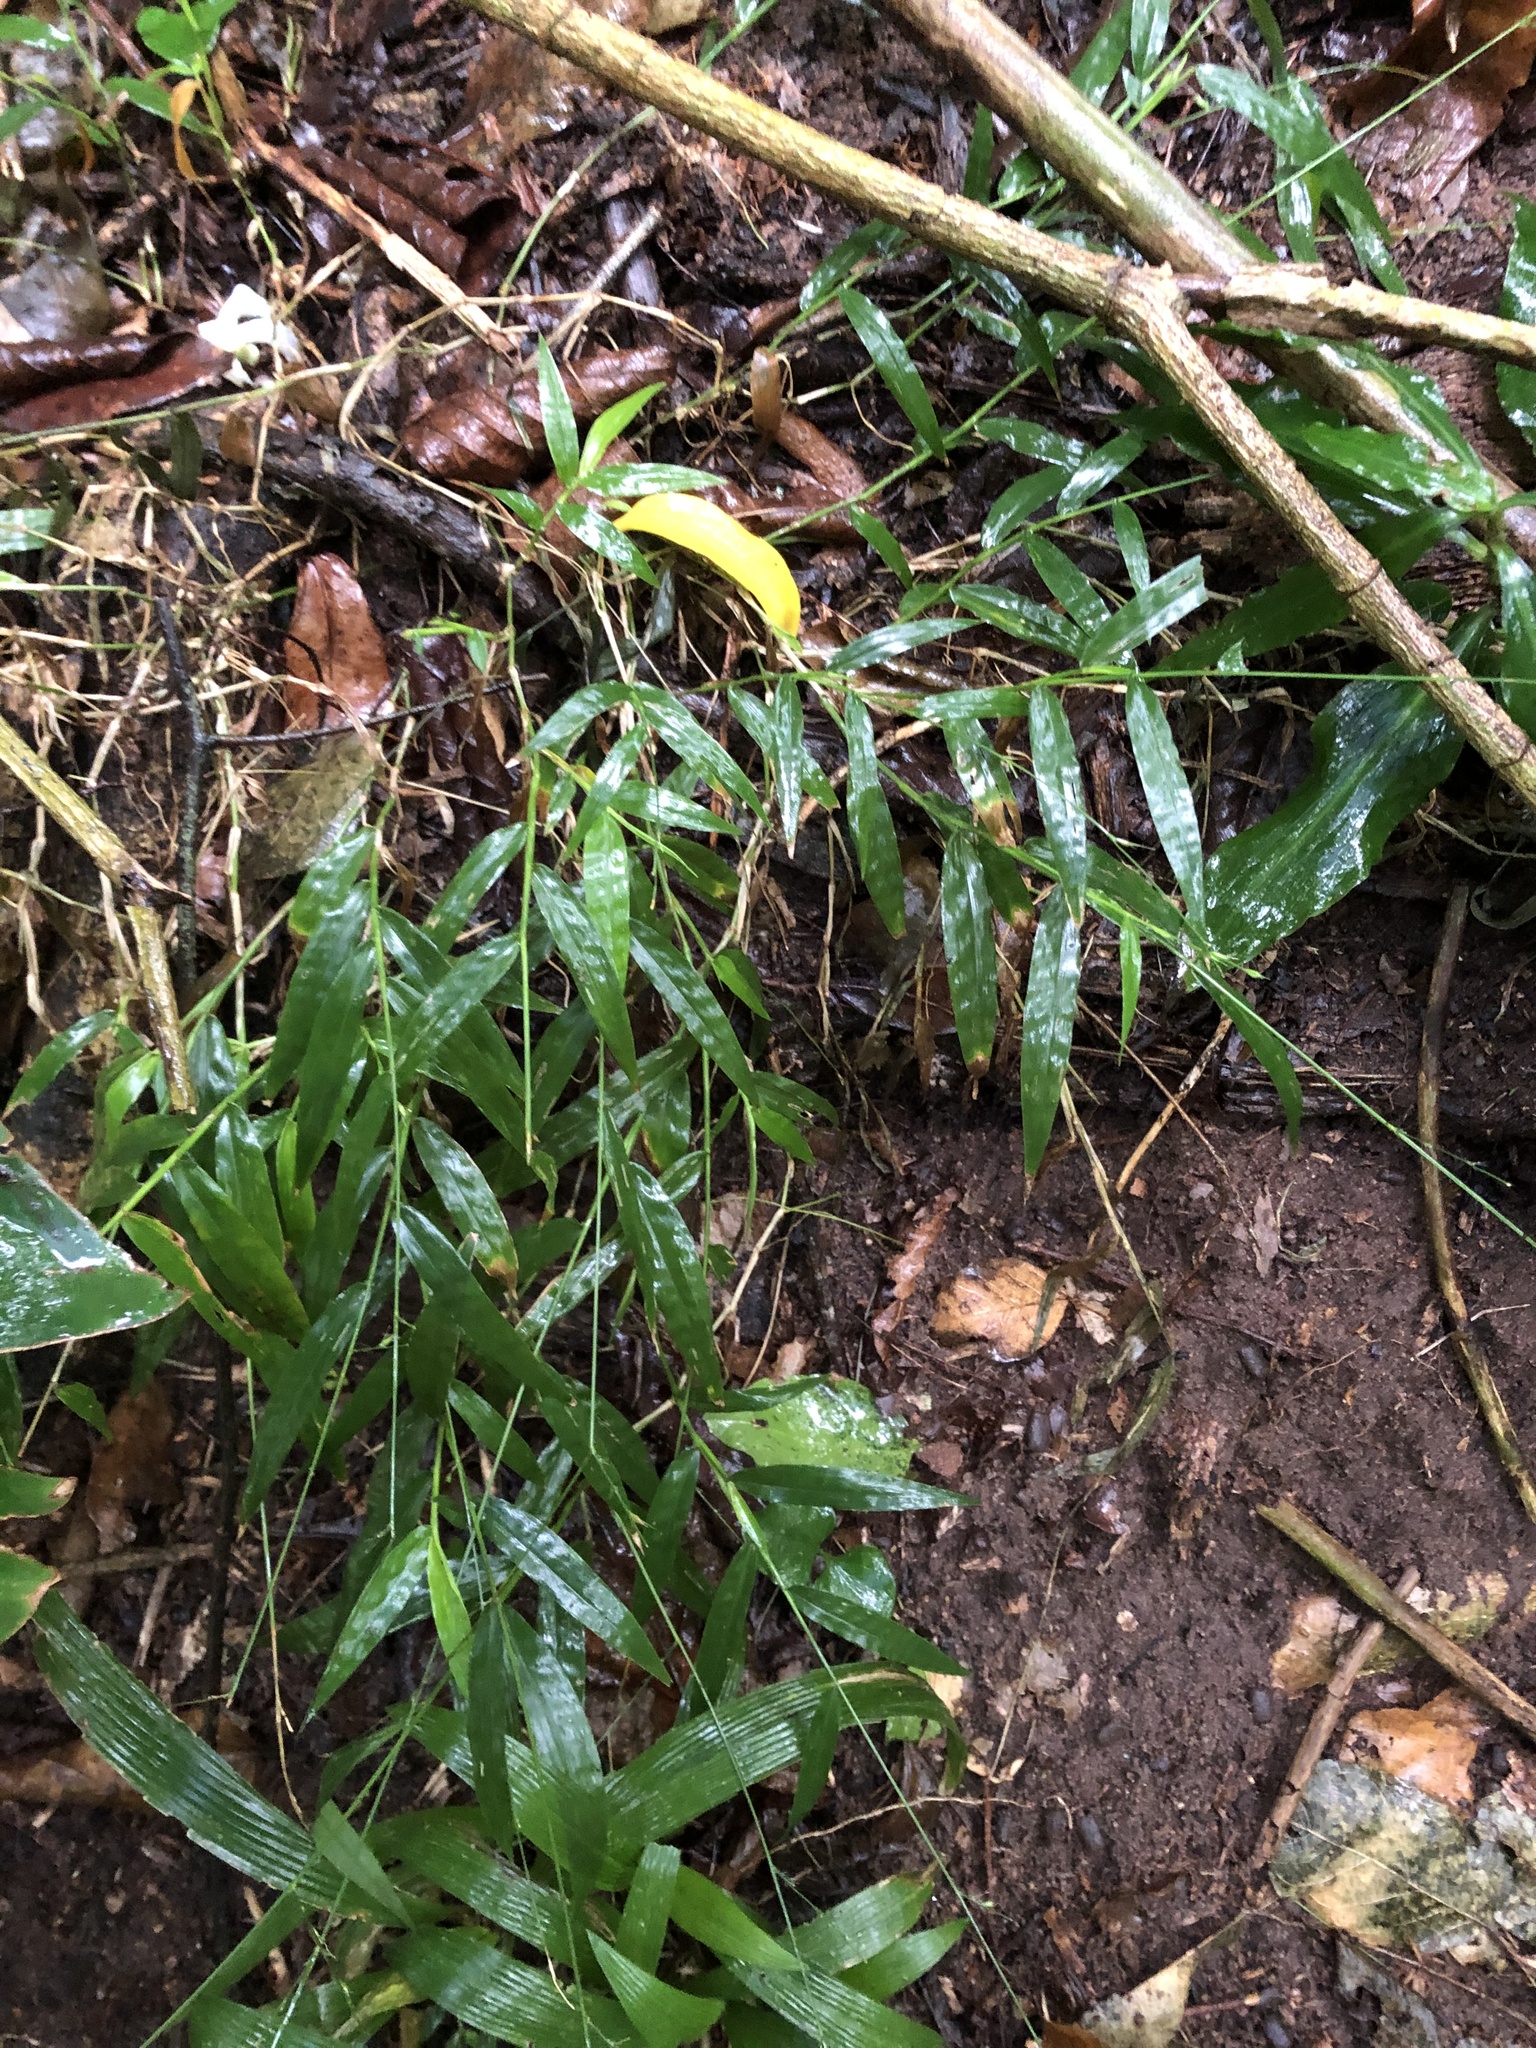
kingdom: Plantae
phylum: Tracheophyta
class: Liliopsida
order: Poales
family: Poaceae
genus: Oplismenus
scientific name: Oplismenus hirtellus
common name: Basketgrass
